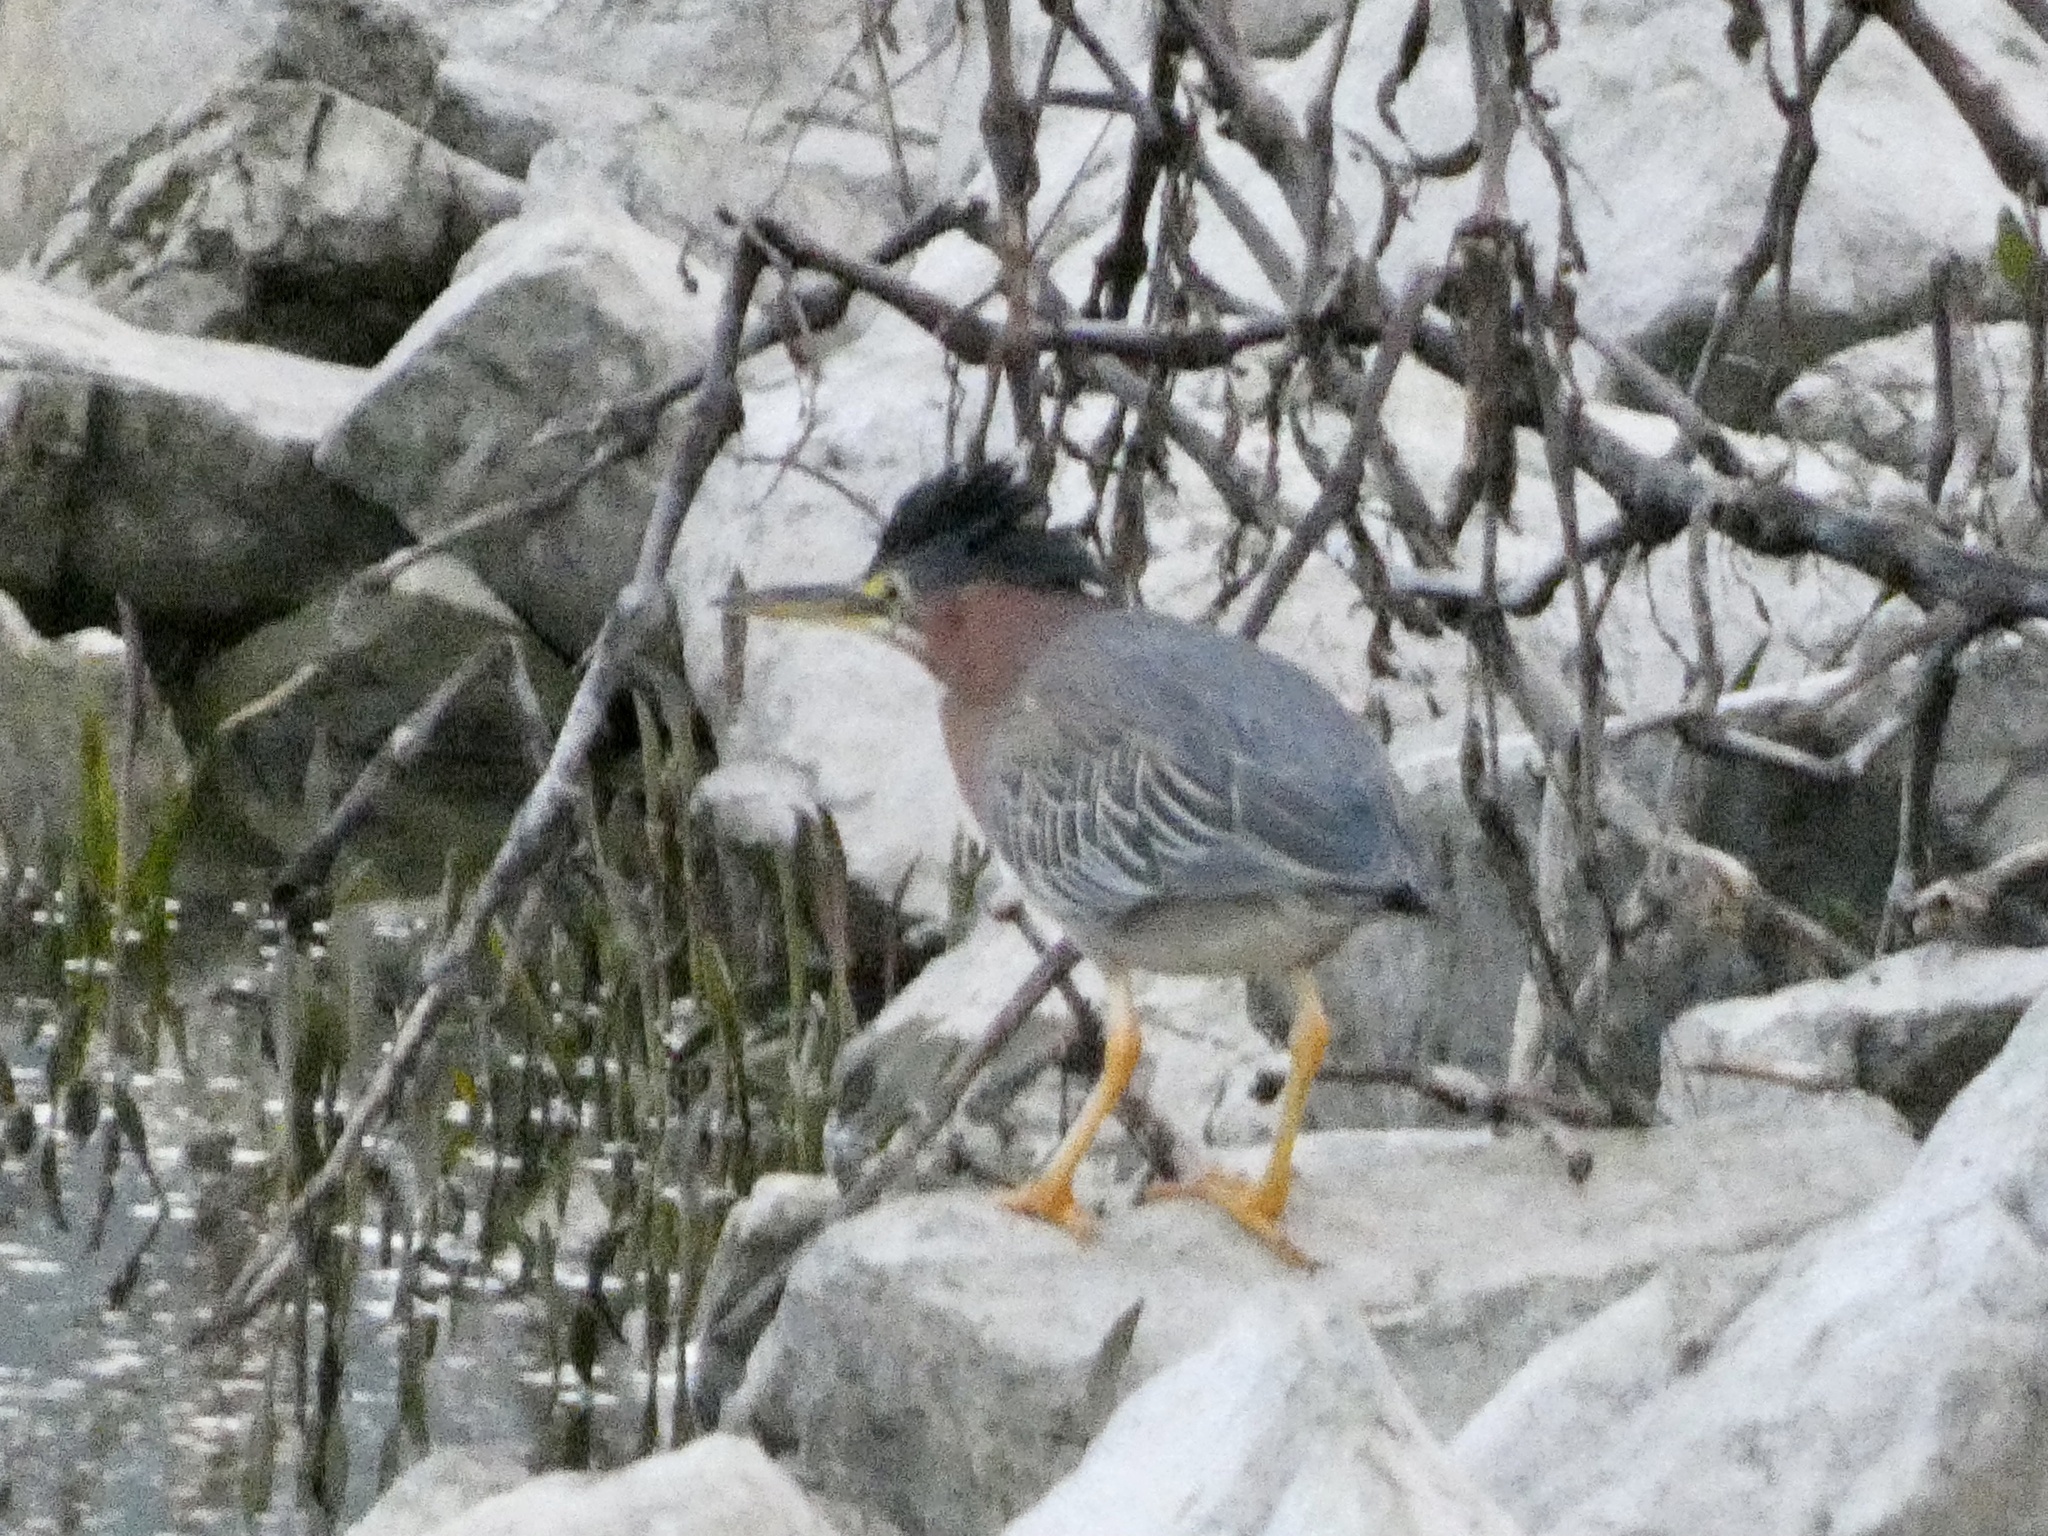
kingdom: Animalia
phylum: Chordata
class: Aves
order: Pelecaniformes
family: Ardeidae
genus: Butorides
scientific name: Butorides virescens
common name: Green heron
